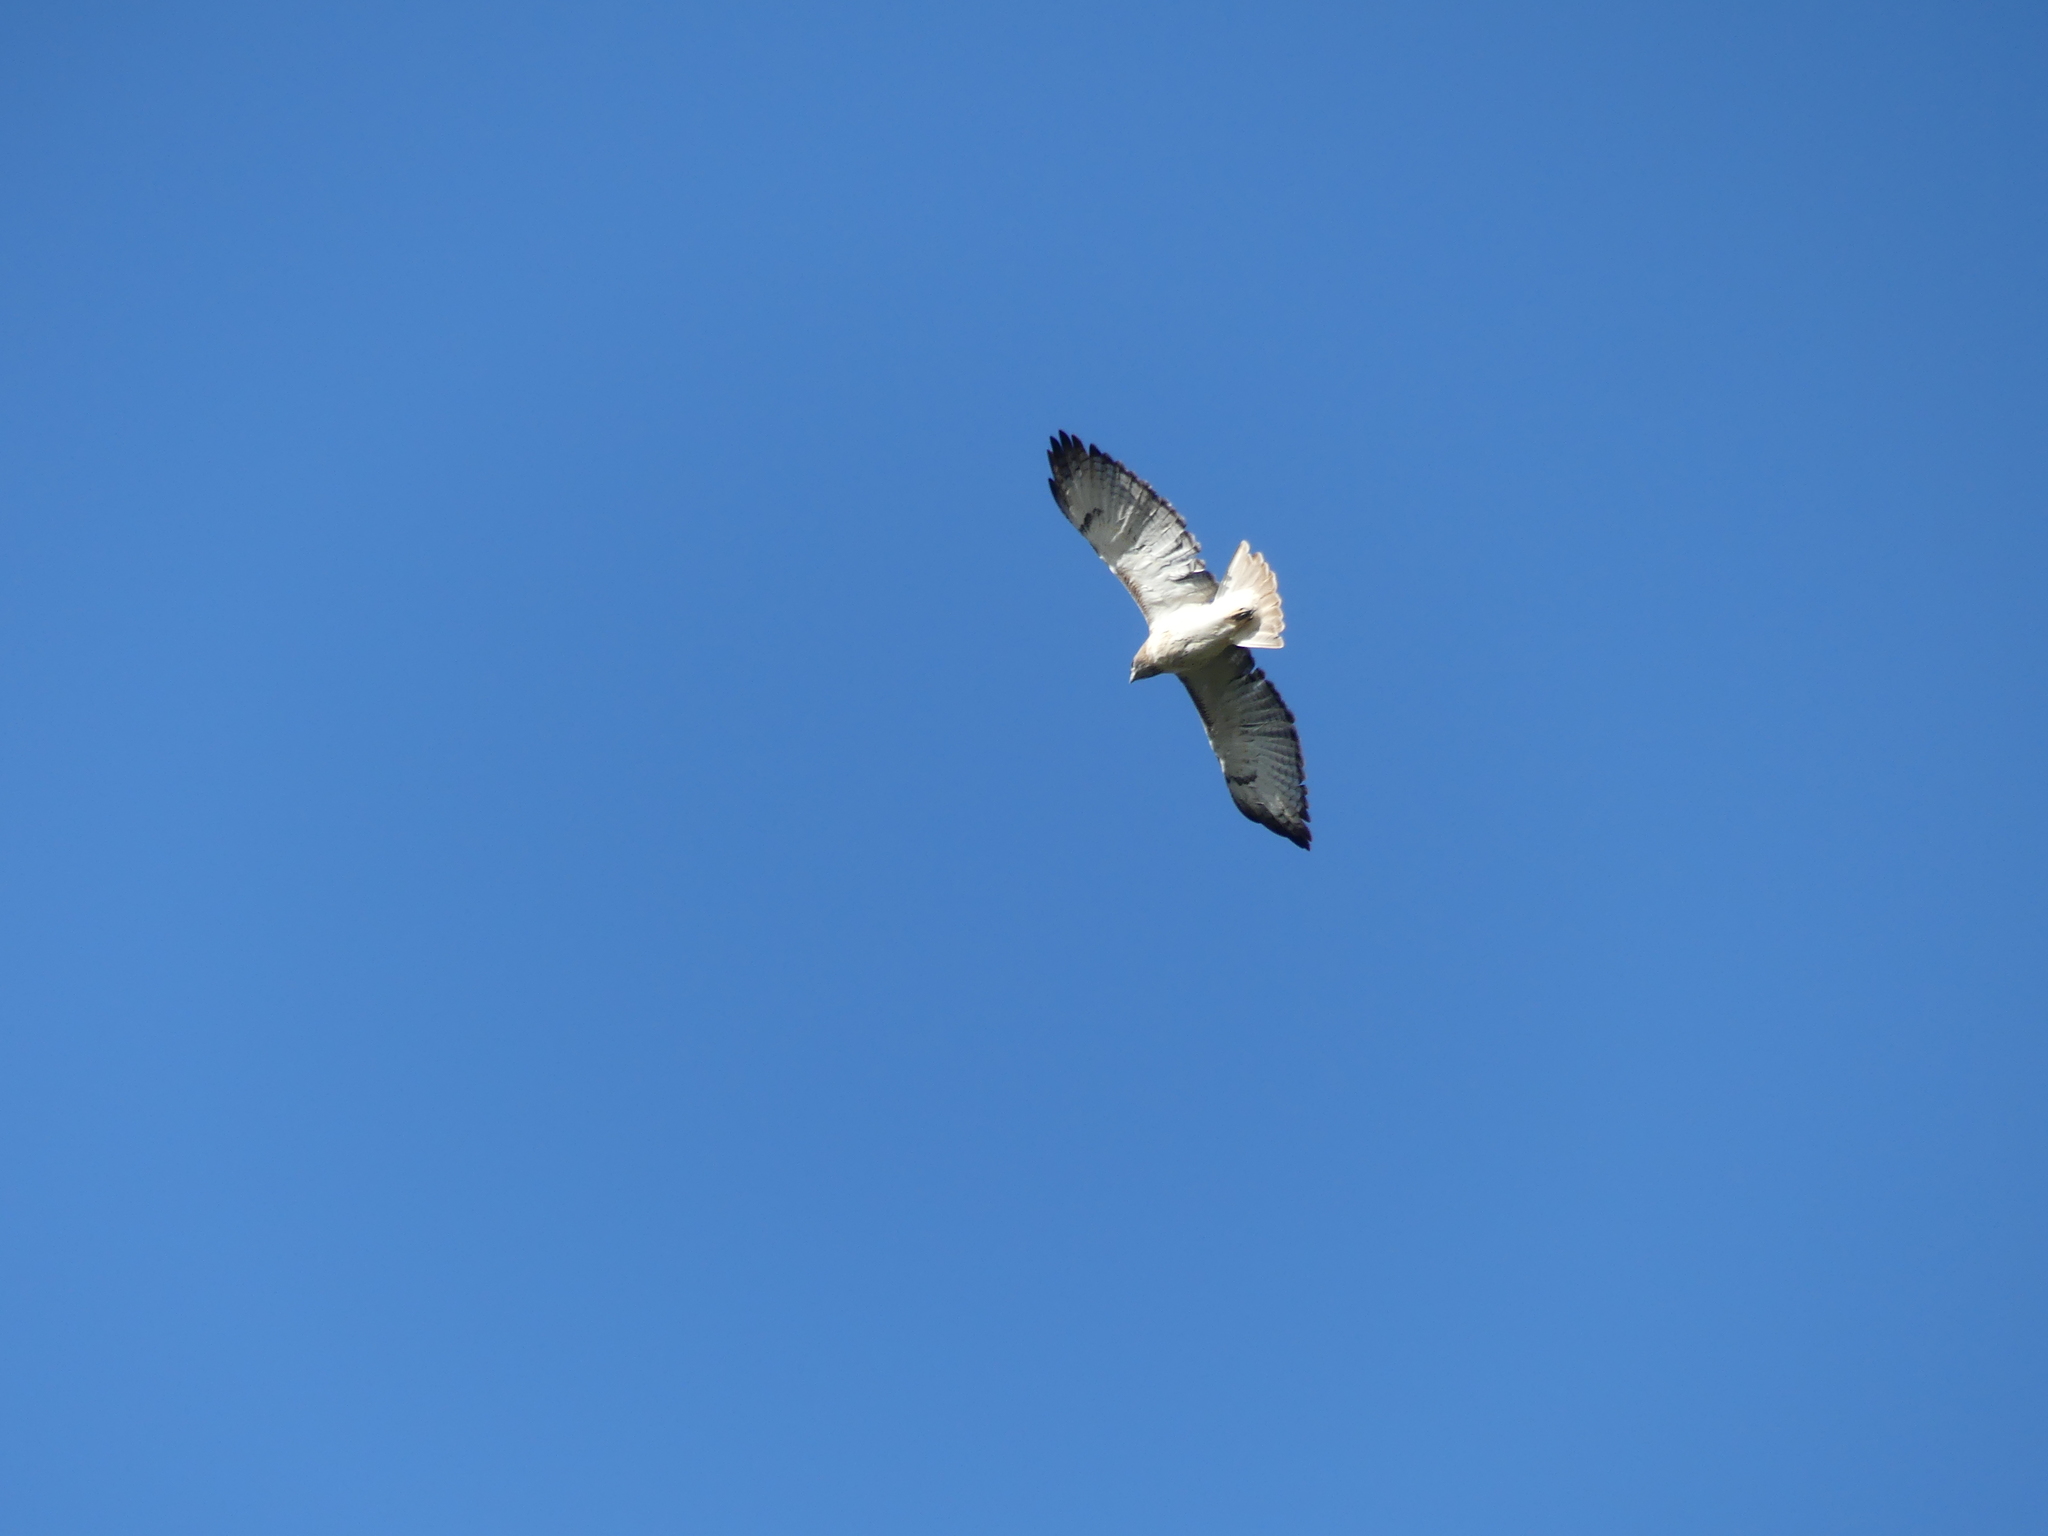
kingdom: Animalia
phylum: Chordata
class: Aves
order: Accipitriformes
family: Accipitridae
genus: Buteo
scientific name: Buteo jamaicensis
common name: Red-tailed hawk
